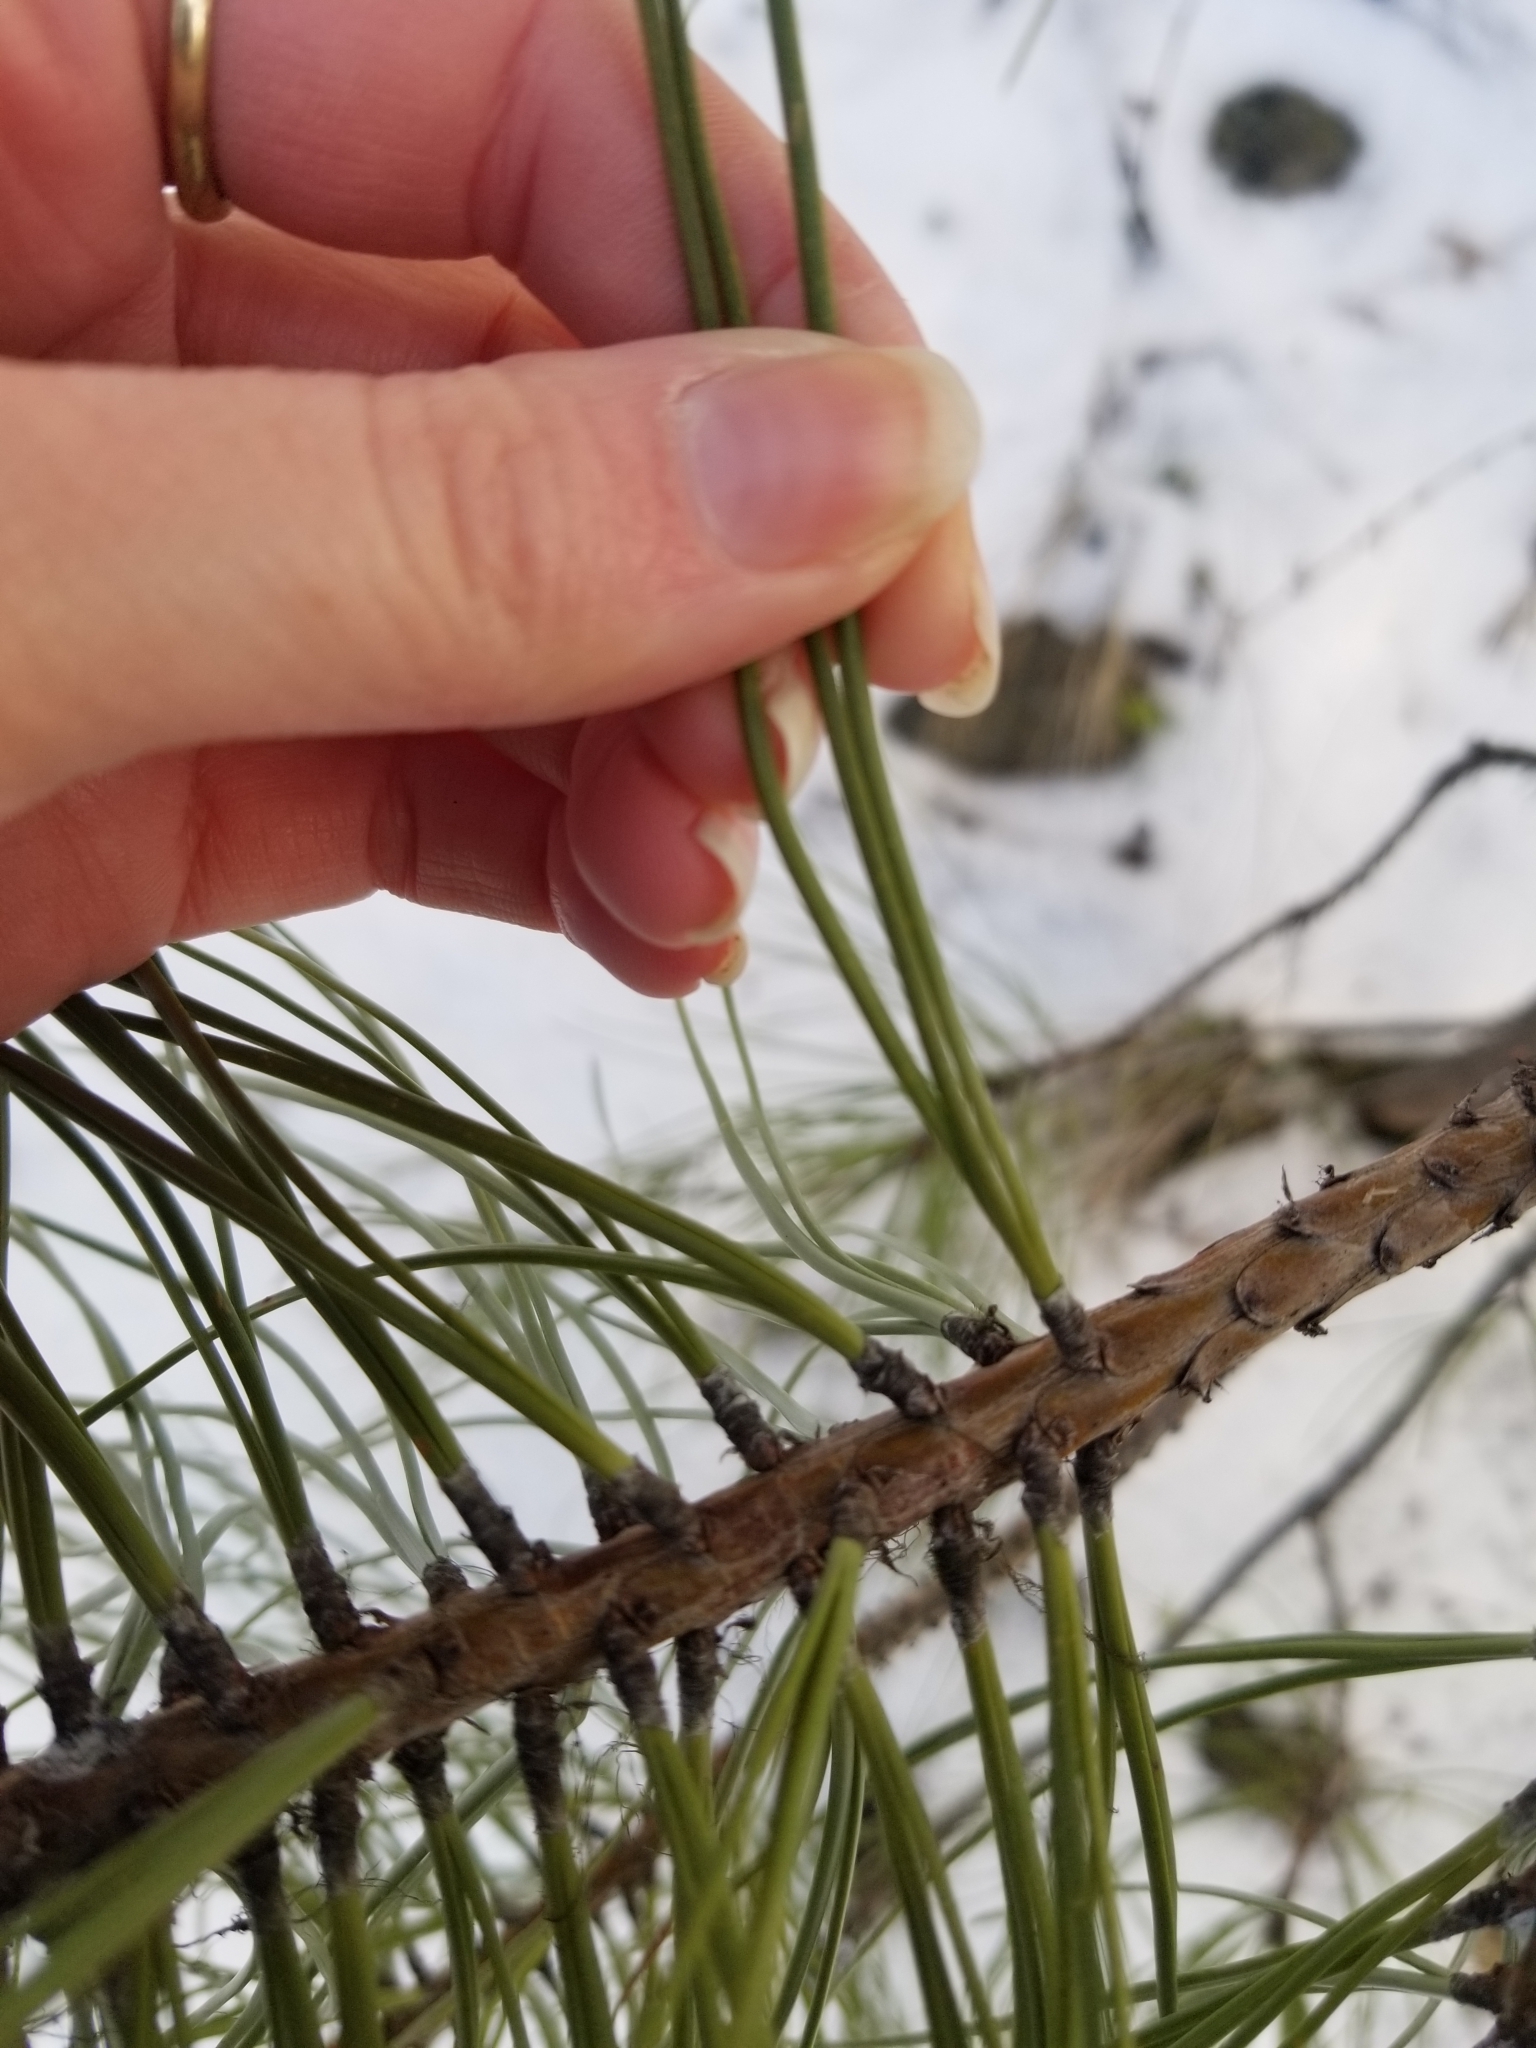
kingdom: Plantae
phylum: Tracheophyta
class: Pinopsida
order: Pinales
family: Pinaceae
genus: Pinus
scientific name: Pinus ponderosa
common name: Western yellow-pine
